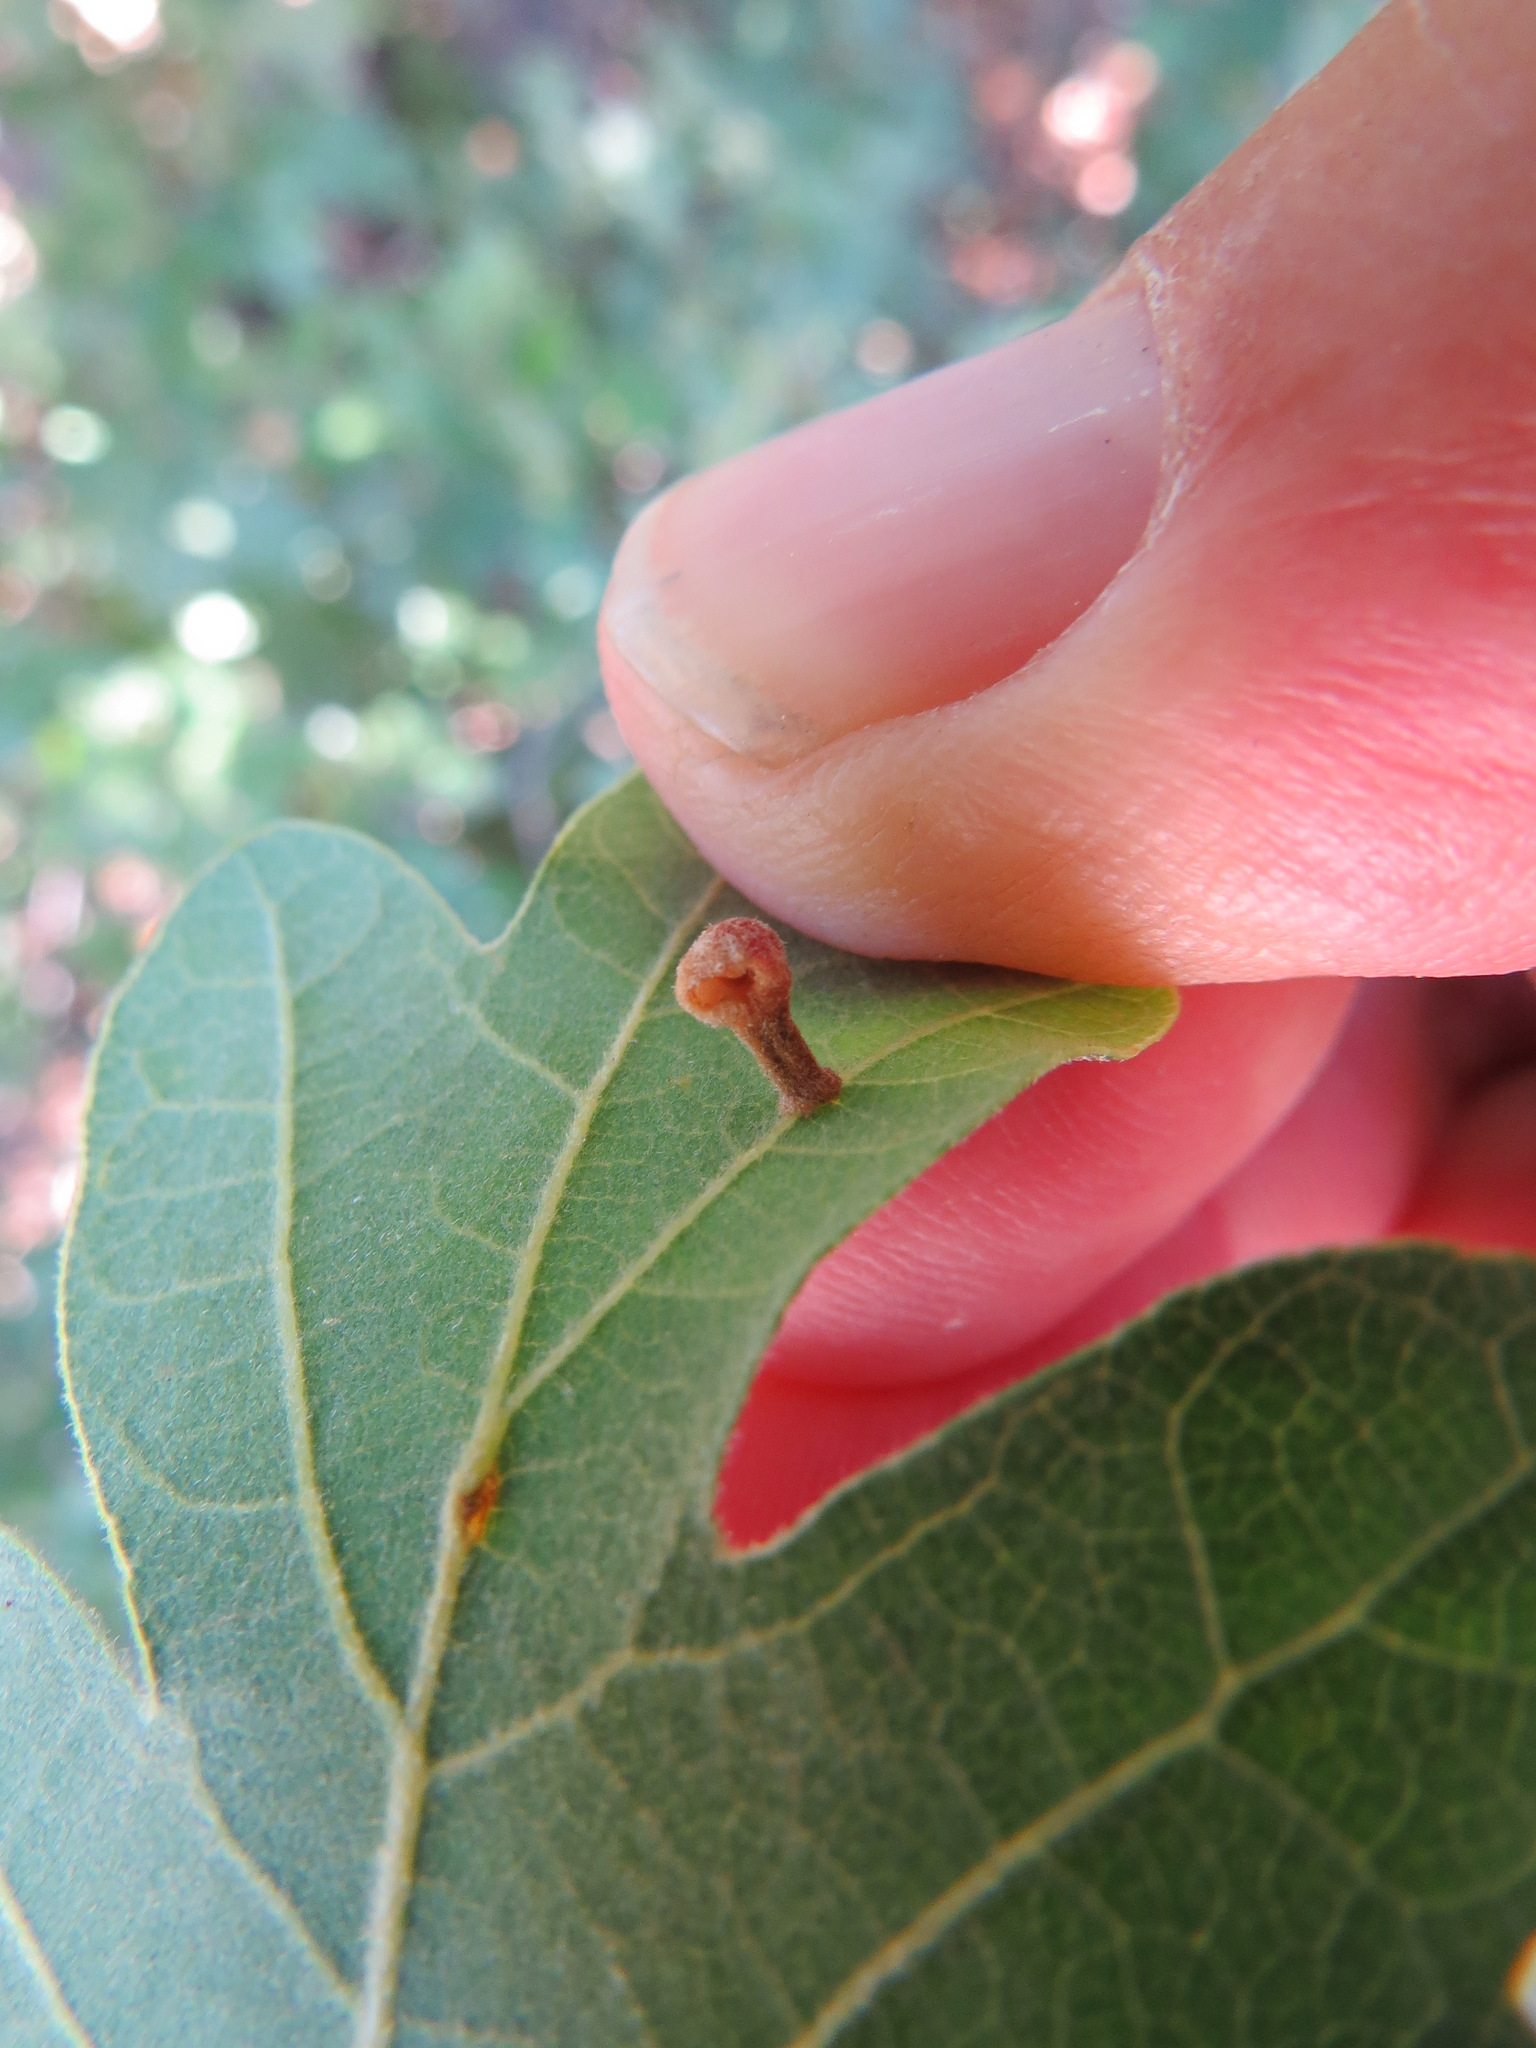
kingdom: Animalia
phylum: Arthropoda
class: Insecta
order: Hymenoptera
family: Cynipidae
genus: Trigonaspis
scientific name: Trigonaspis
